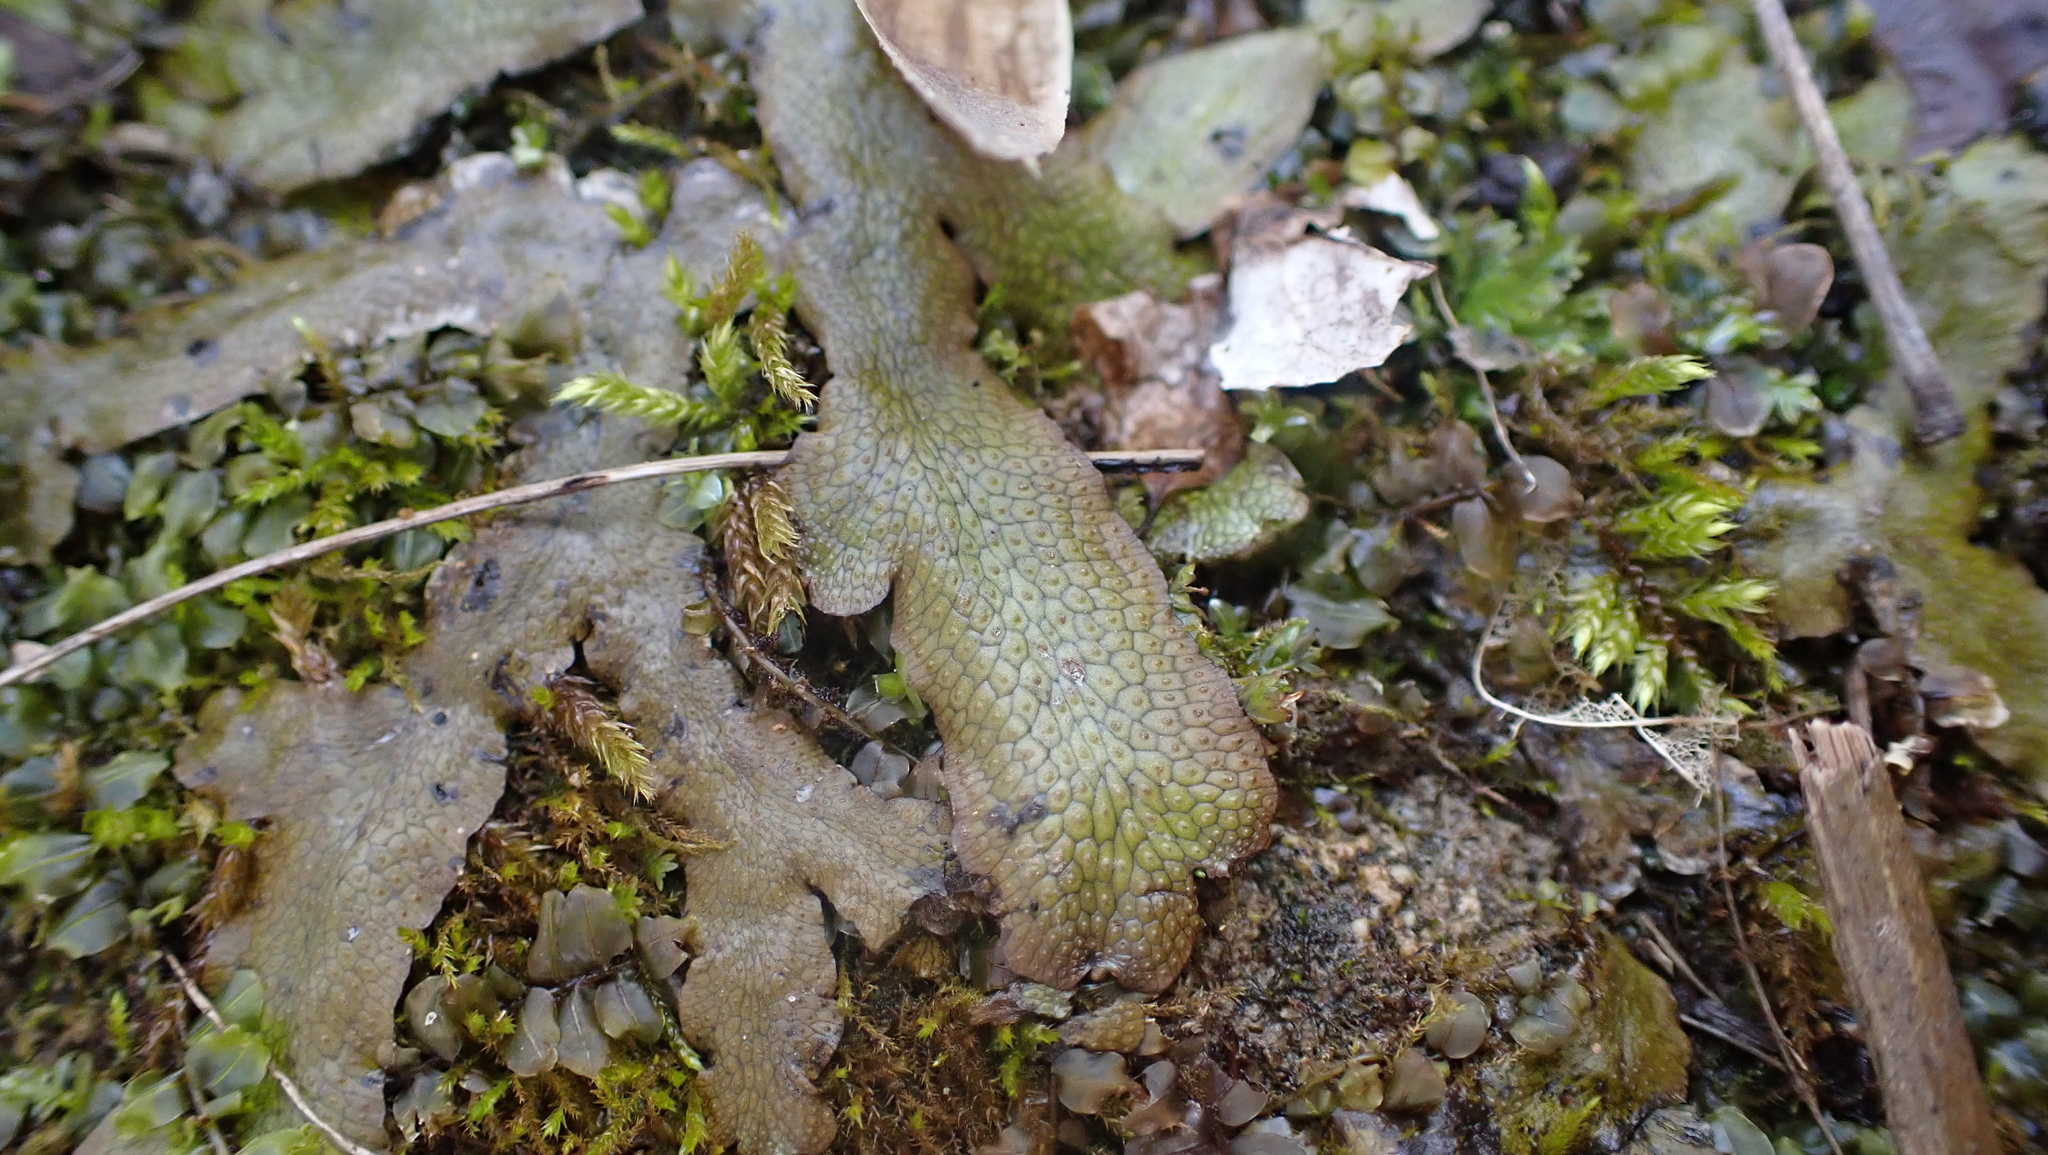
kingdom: Plantae
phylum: Marchantiophyta
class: Marchantiopsida
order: Marchantiales
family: Conocephalaceae
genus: Conocephalum
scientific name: Conocephalum salebrosum
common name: Cat-tongue liverwort
